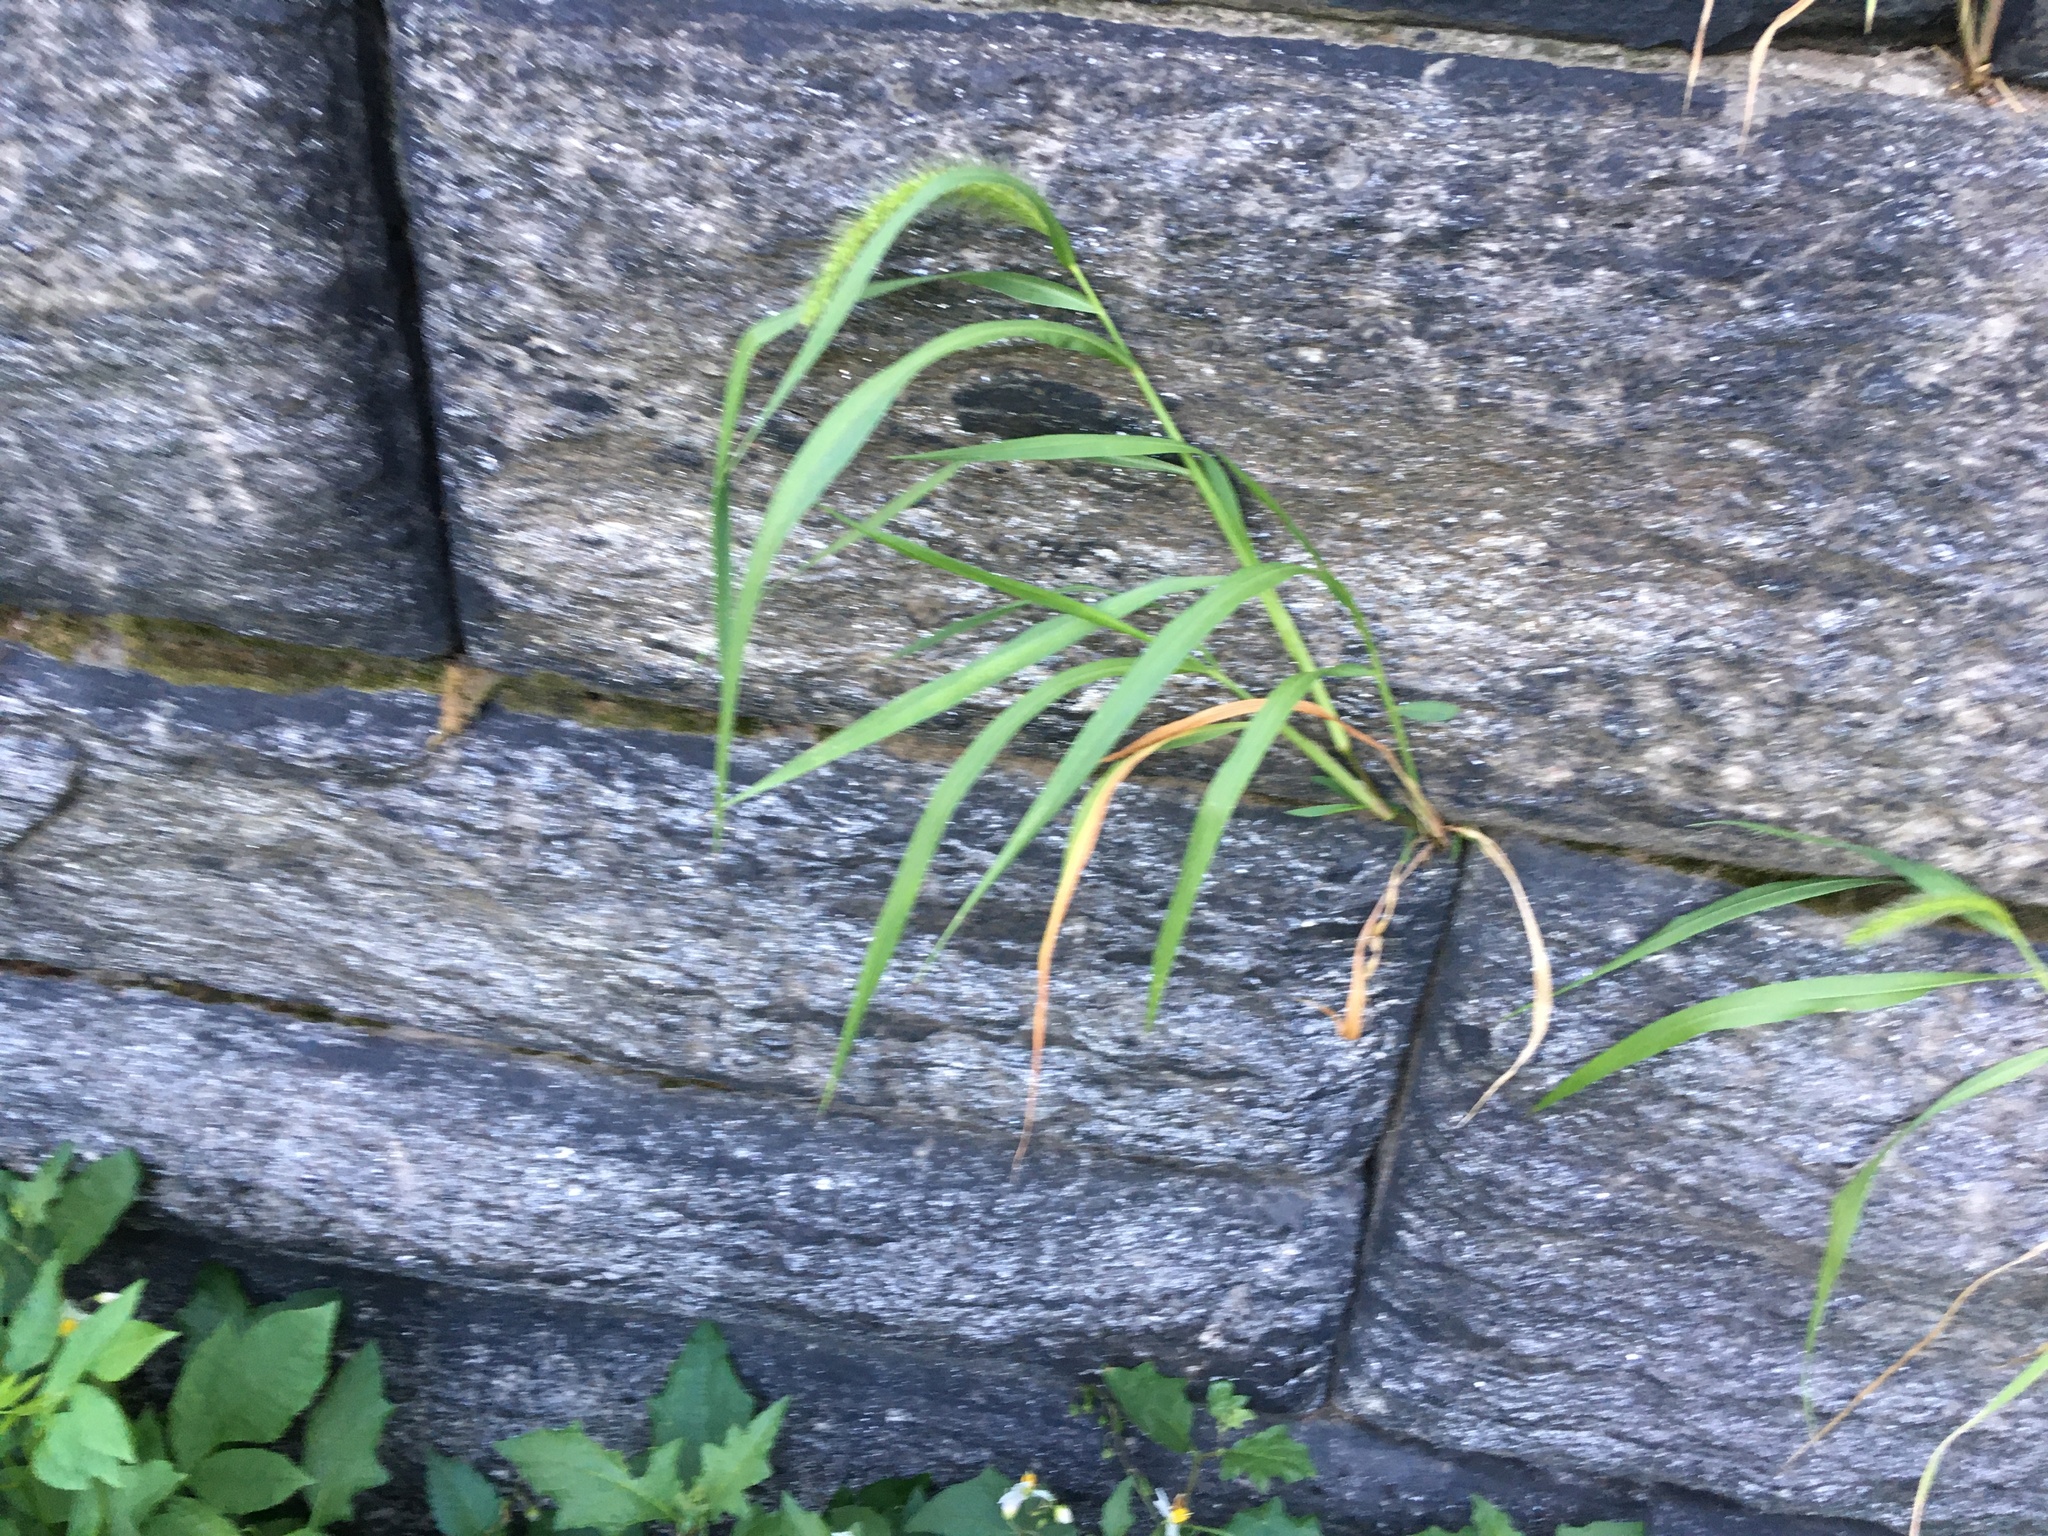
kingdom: Plantae
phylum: Tracheophyta
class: Liliopsida
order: Poales
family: Poaceae
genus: Setaria
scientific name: Setaria viridis
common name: Green bristlegrass
